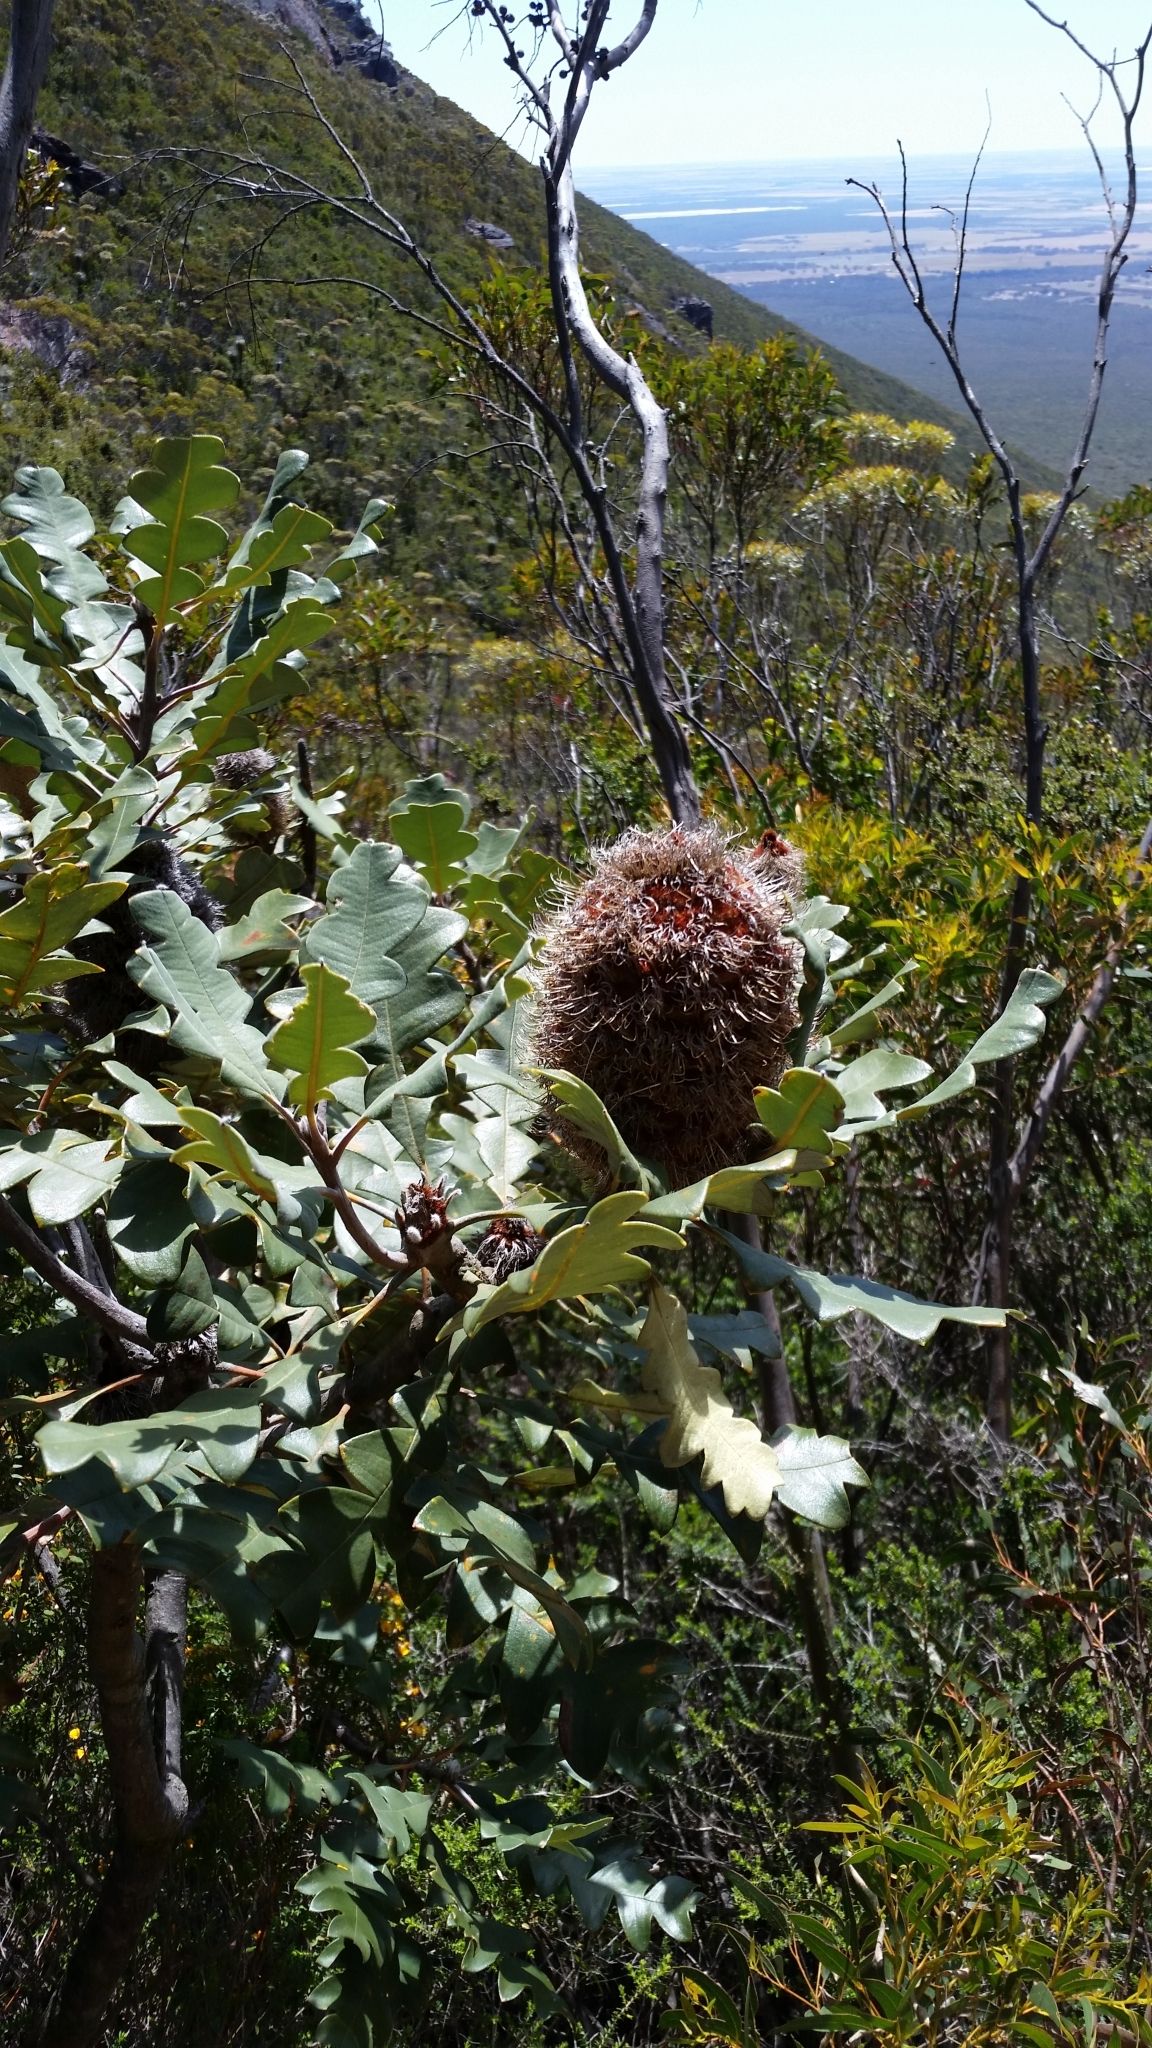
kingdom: Plantae
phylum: Tracheophyta
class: Magnoliopsida
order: Proteales
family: Proteaceae
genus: Banksia
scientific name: Banksia solandri
